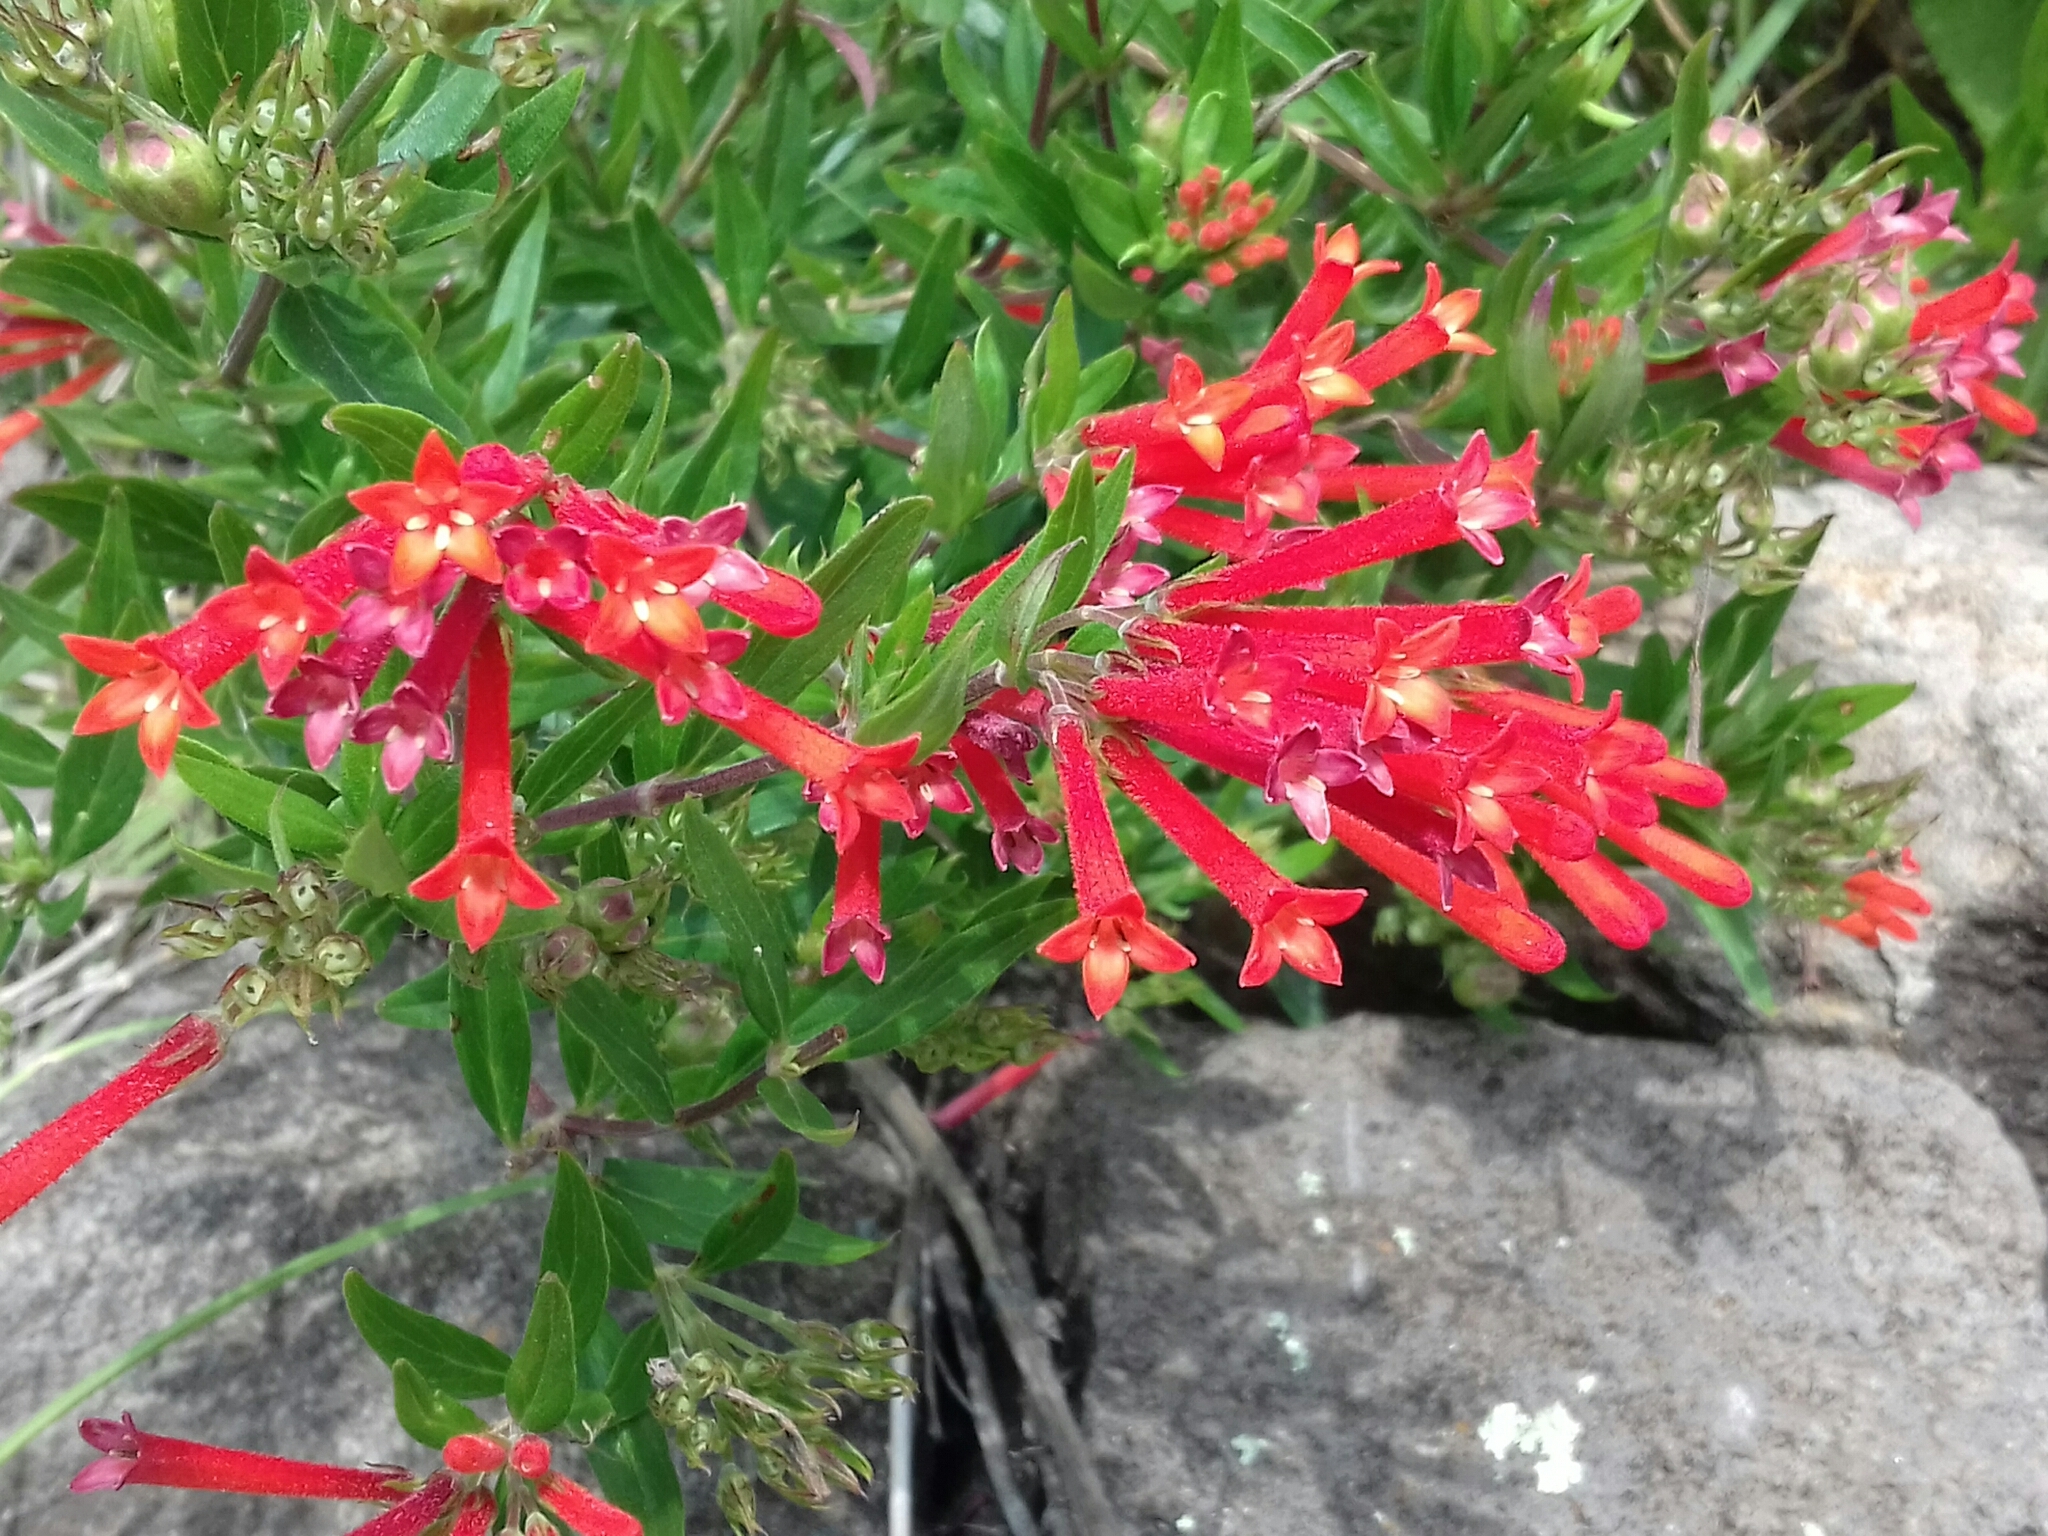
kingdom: Plantae
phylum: Tracheophyta
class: Magnoliopsida
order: Gentianales
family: Rubiaceae
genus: Bouvardia
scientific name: Bouvardia ternifolia
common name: Scarlet bouvardia
